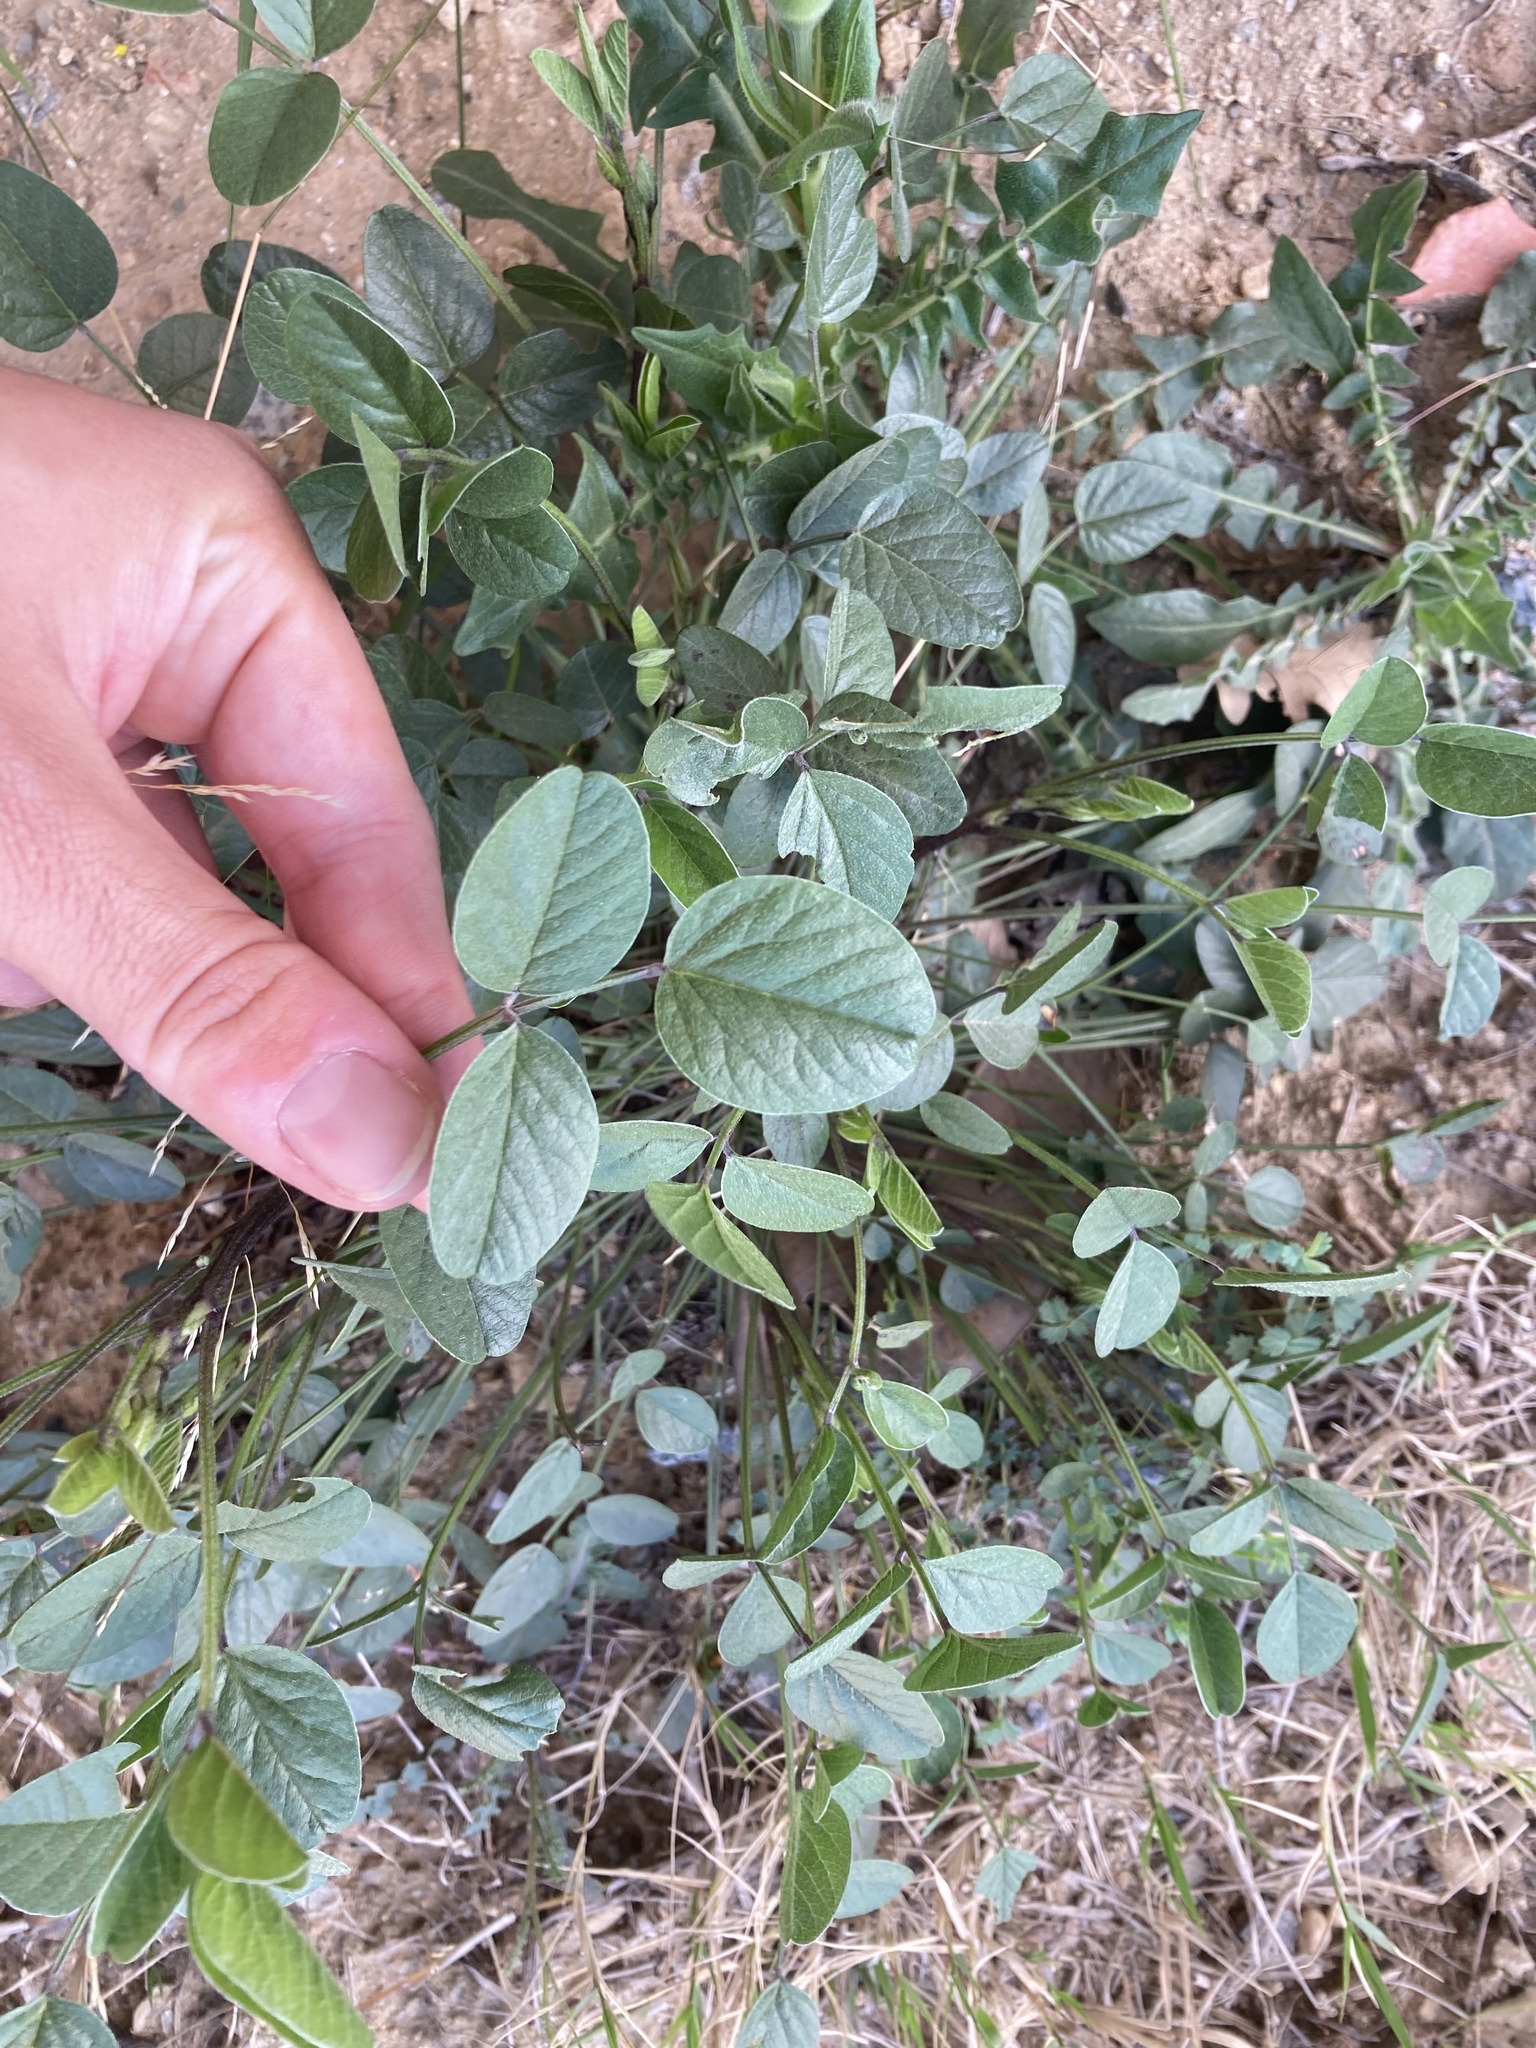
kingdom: Plantae
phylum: Tracheophyta
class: Magnoliopsida
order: Fabales
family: Fabaceae
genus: Bituminaria
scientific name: Bituminaria bituminosa
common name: Arabian pea
